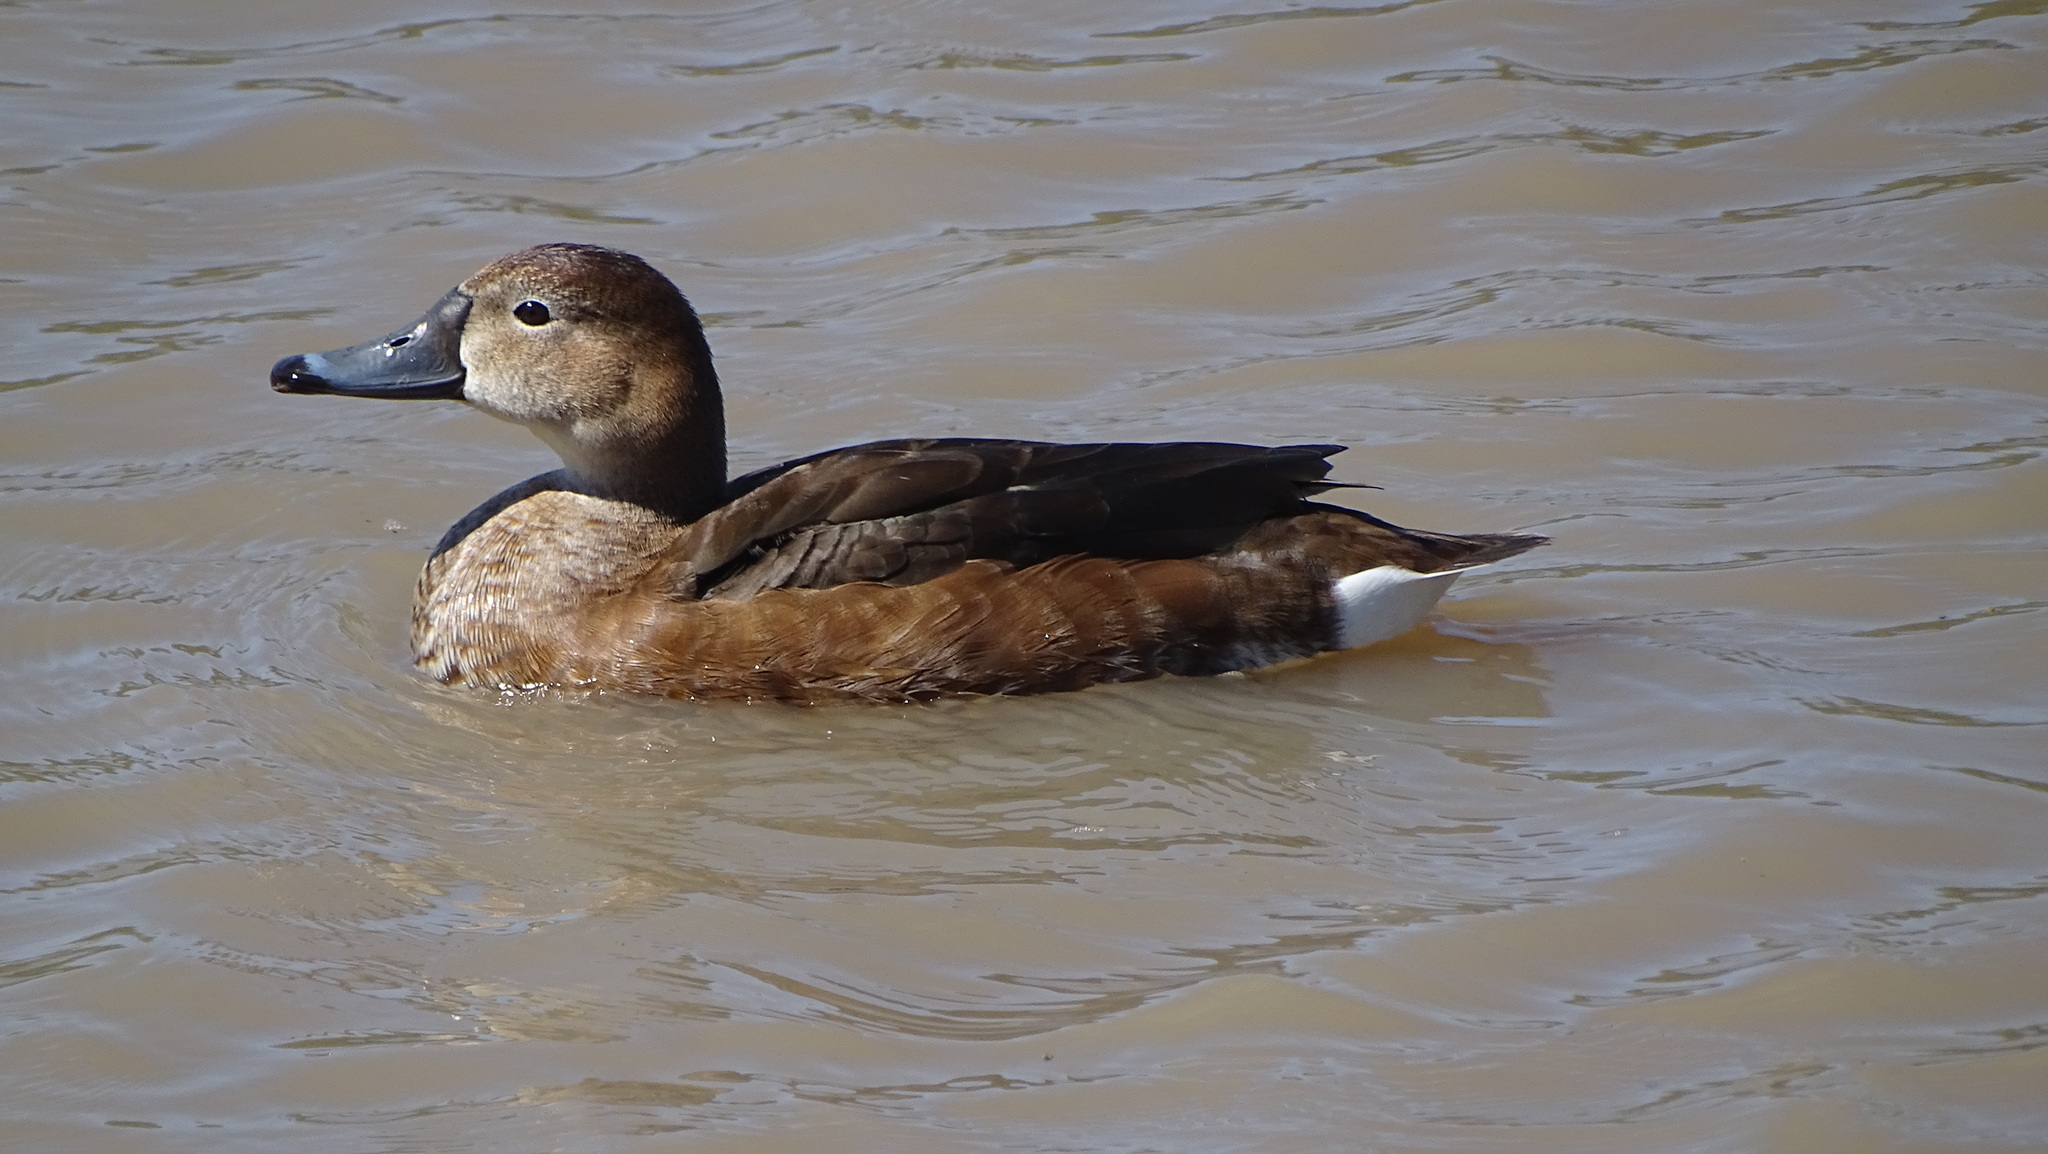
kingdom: Animalia
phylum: Chordata
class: Aves
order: Anseriformes
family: Anatidae
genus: Netta
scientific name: Netta peposaca
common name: Rosy-billed pochard
